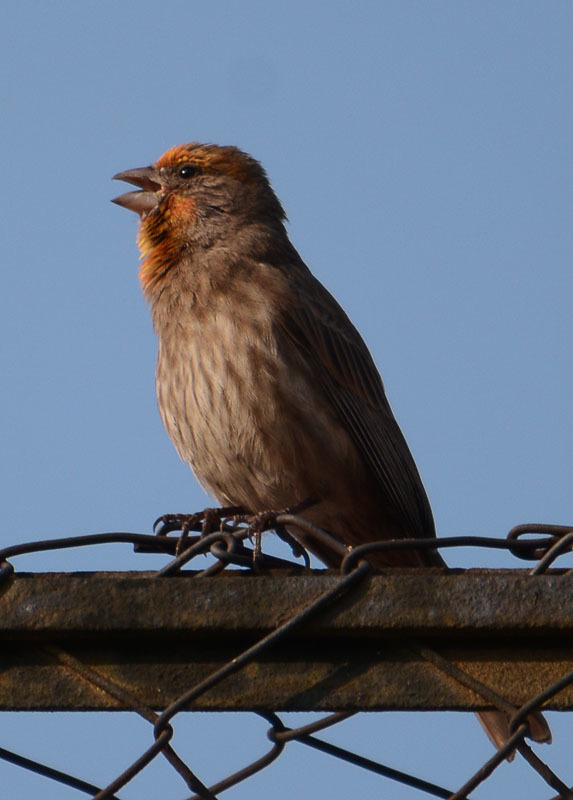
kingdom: Animalia
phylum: Chordata
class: Aves
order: Passeriformes
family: Fringillidae
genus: Haemorhous
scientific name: Haemorhous mexicanus
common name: House finch
